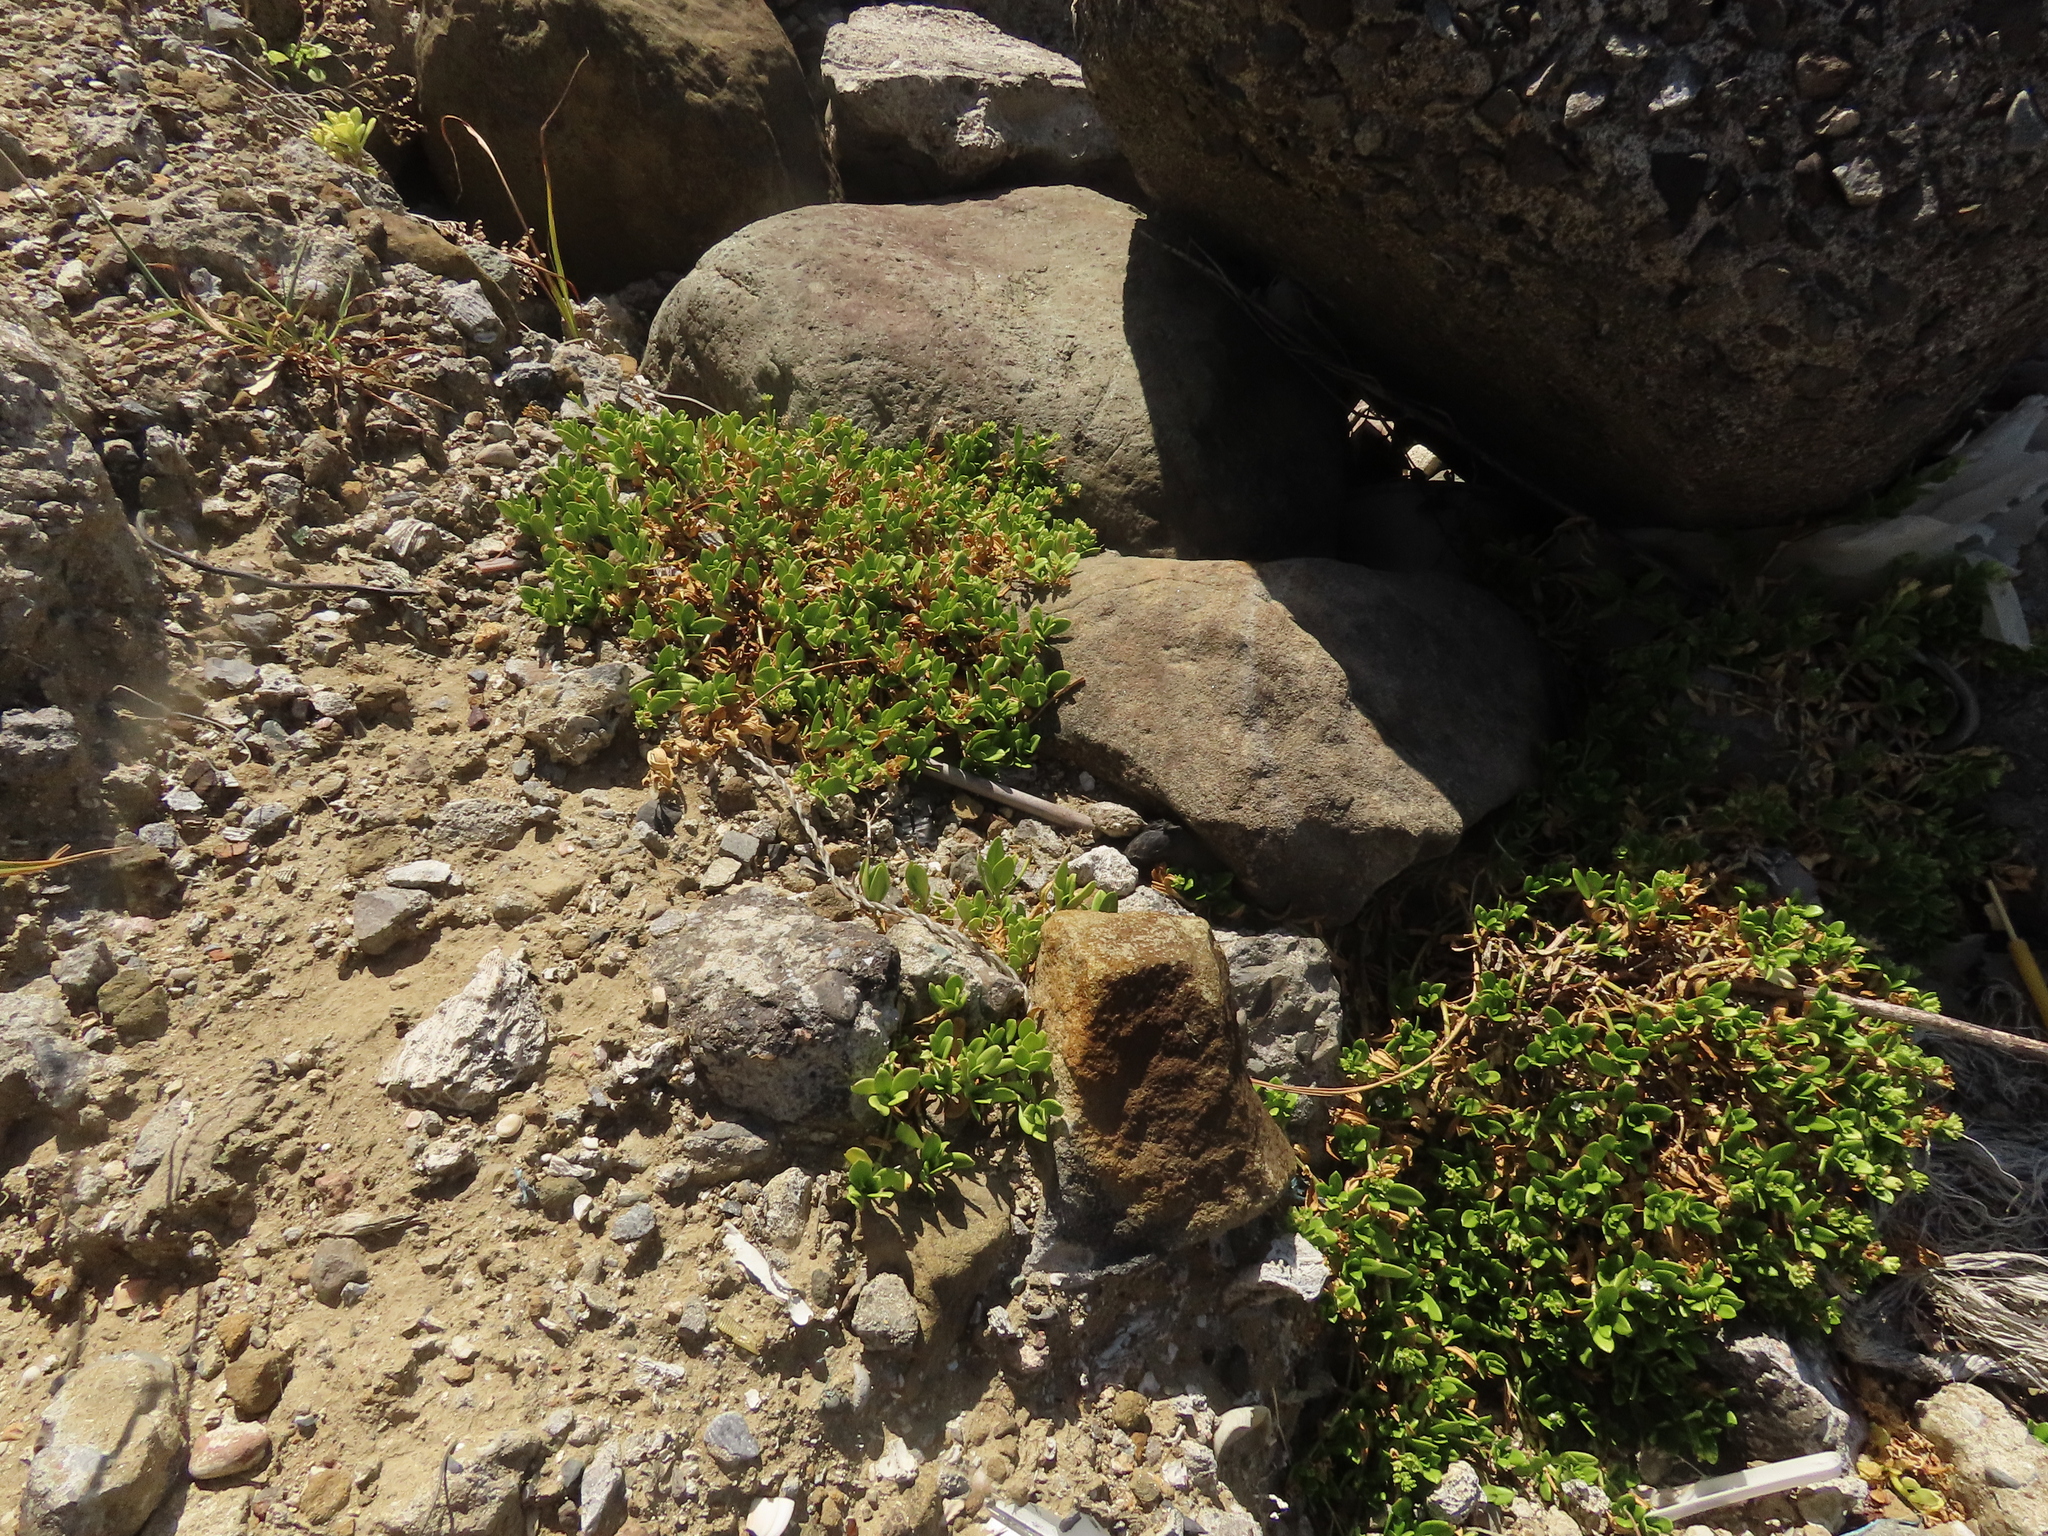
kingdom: Plantae
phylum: Tracheophyta
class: Magnoliopsida
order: Gentianales
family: Rubiaceae
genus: Leptopetalum
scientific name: Leptopetalum strigulosum
